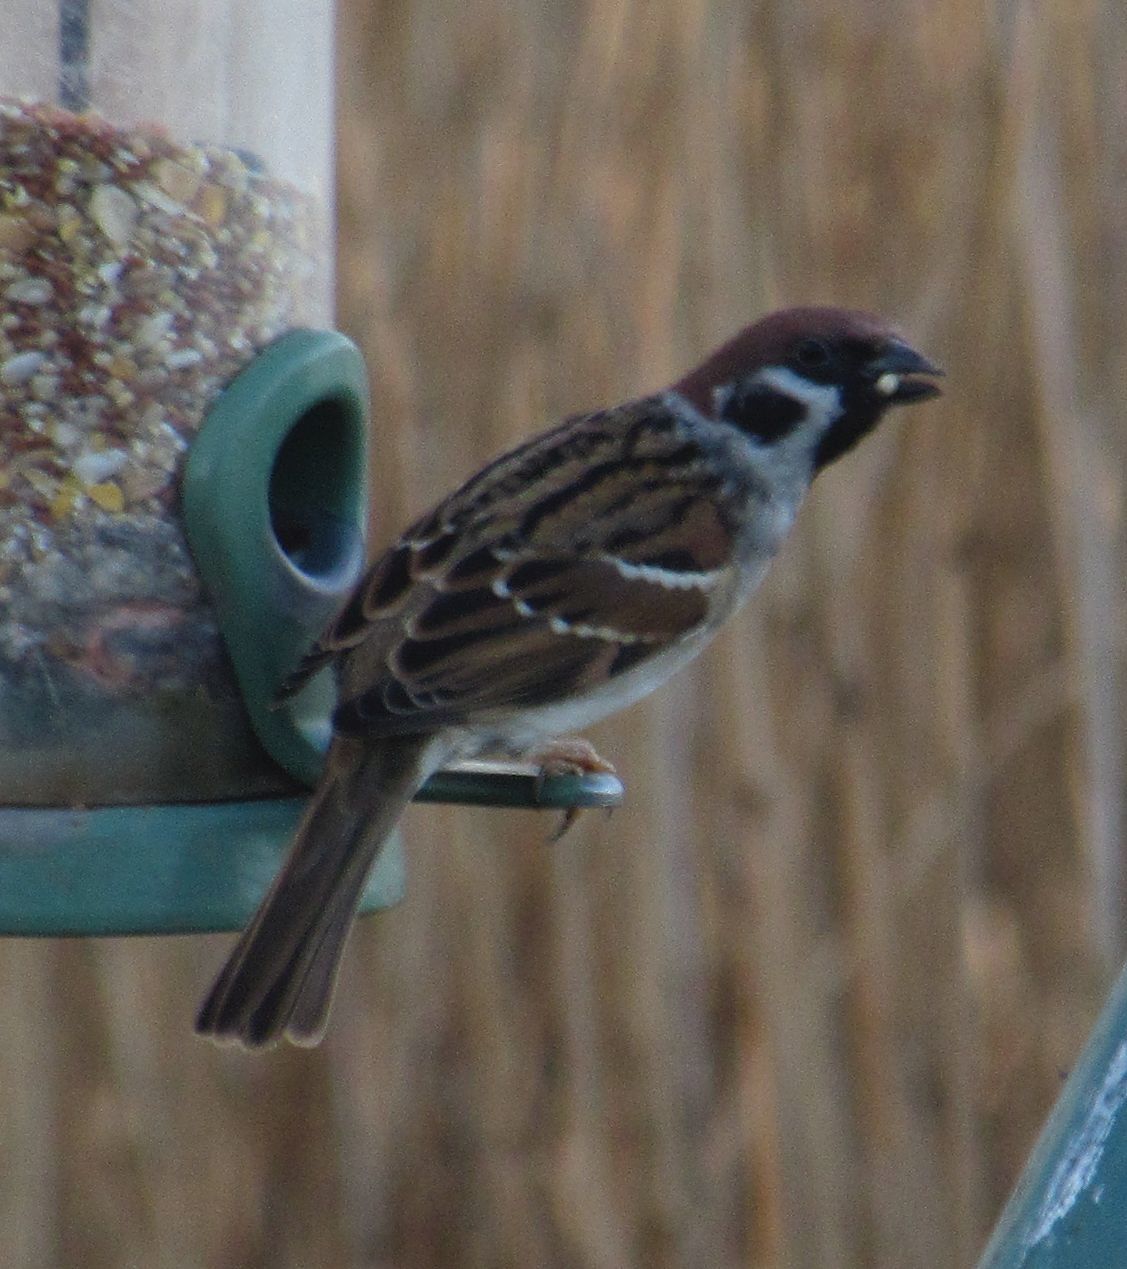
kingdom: Animalia
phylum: Chordata
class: Aves
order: Passeriformes
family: Passeridae
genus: Passer
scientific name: Passer montanus
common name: Eurasian tree sparrow
